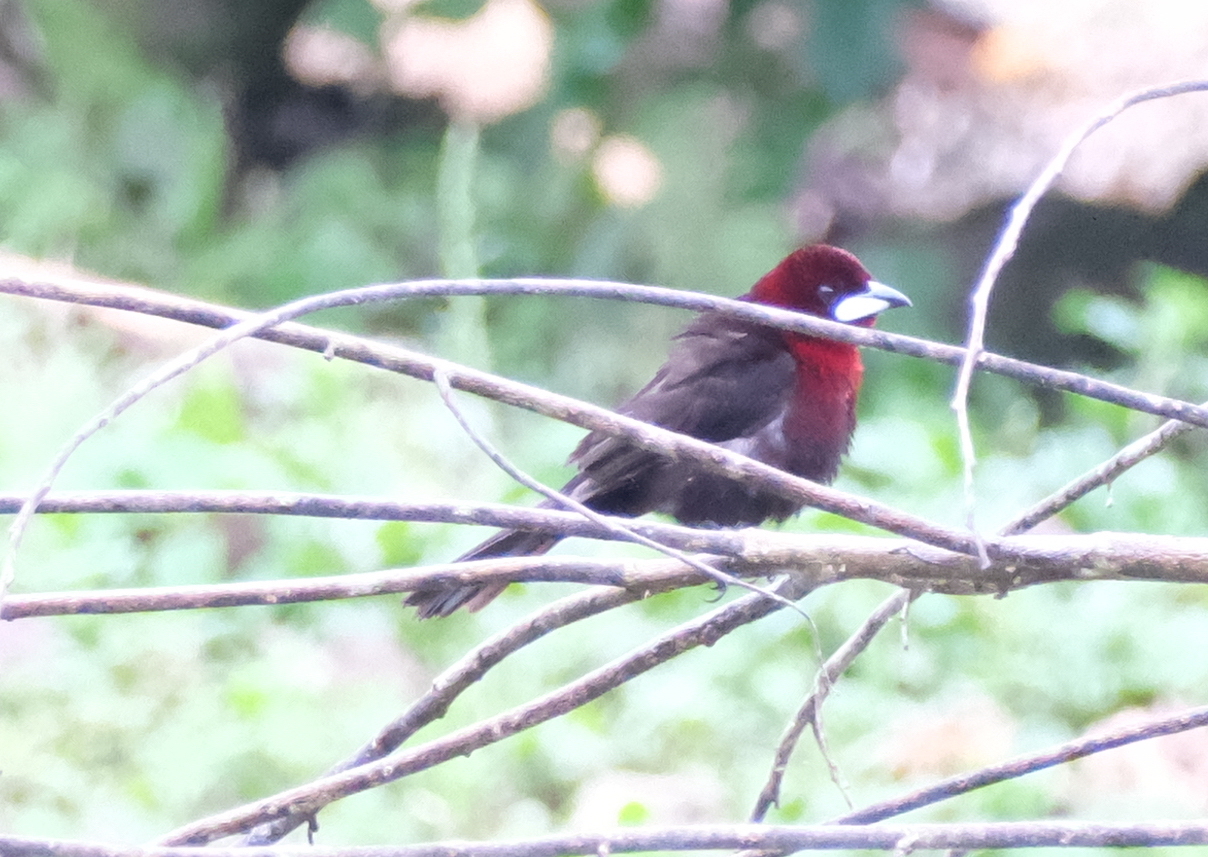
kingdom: Animalia
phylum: Chordata
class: Aves
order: Passeriformes
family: Thraupidae
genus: Ramphocelus
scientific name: Ramphocelus carbo
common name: Silver-beaked tanager
